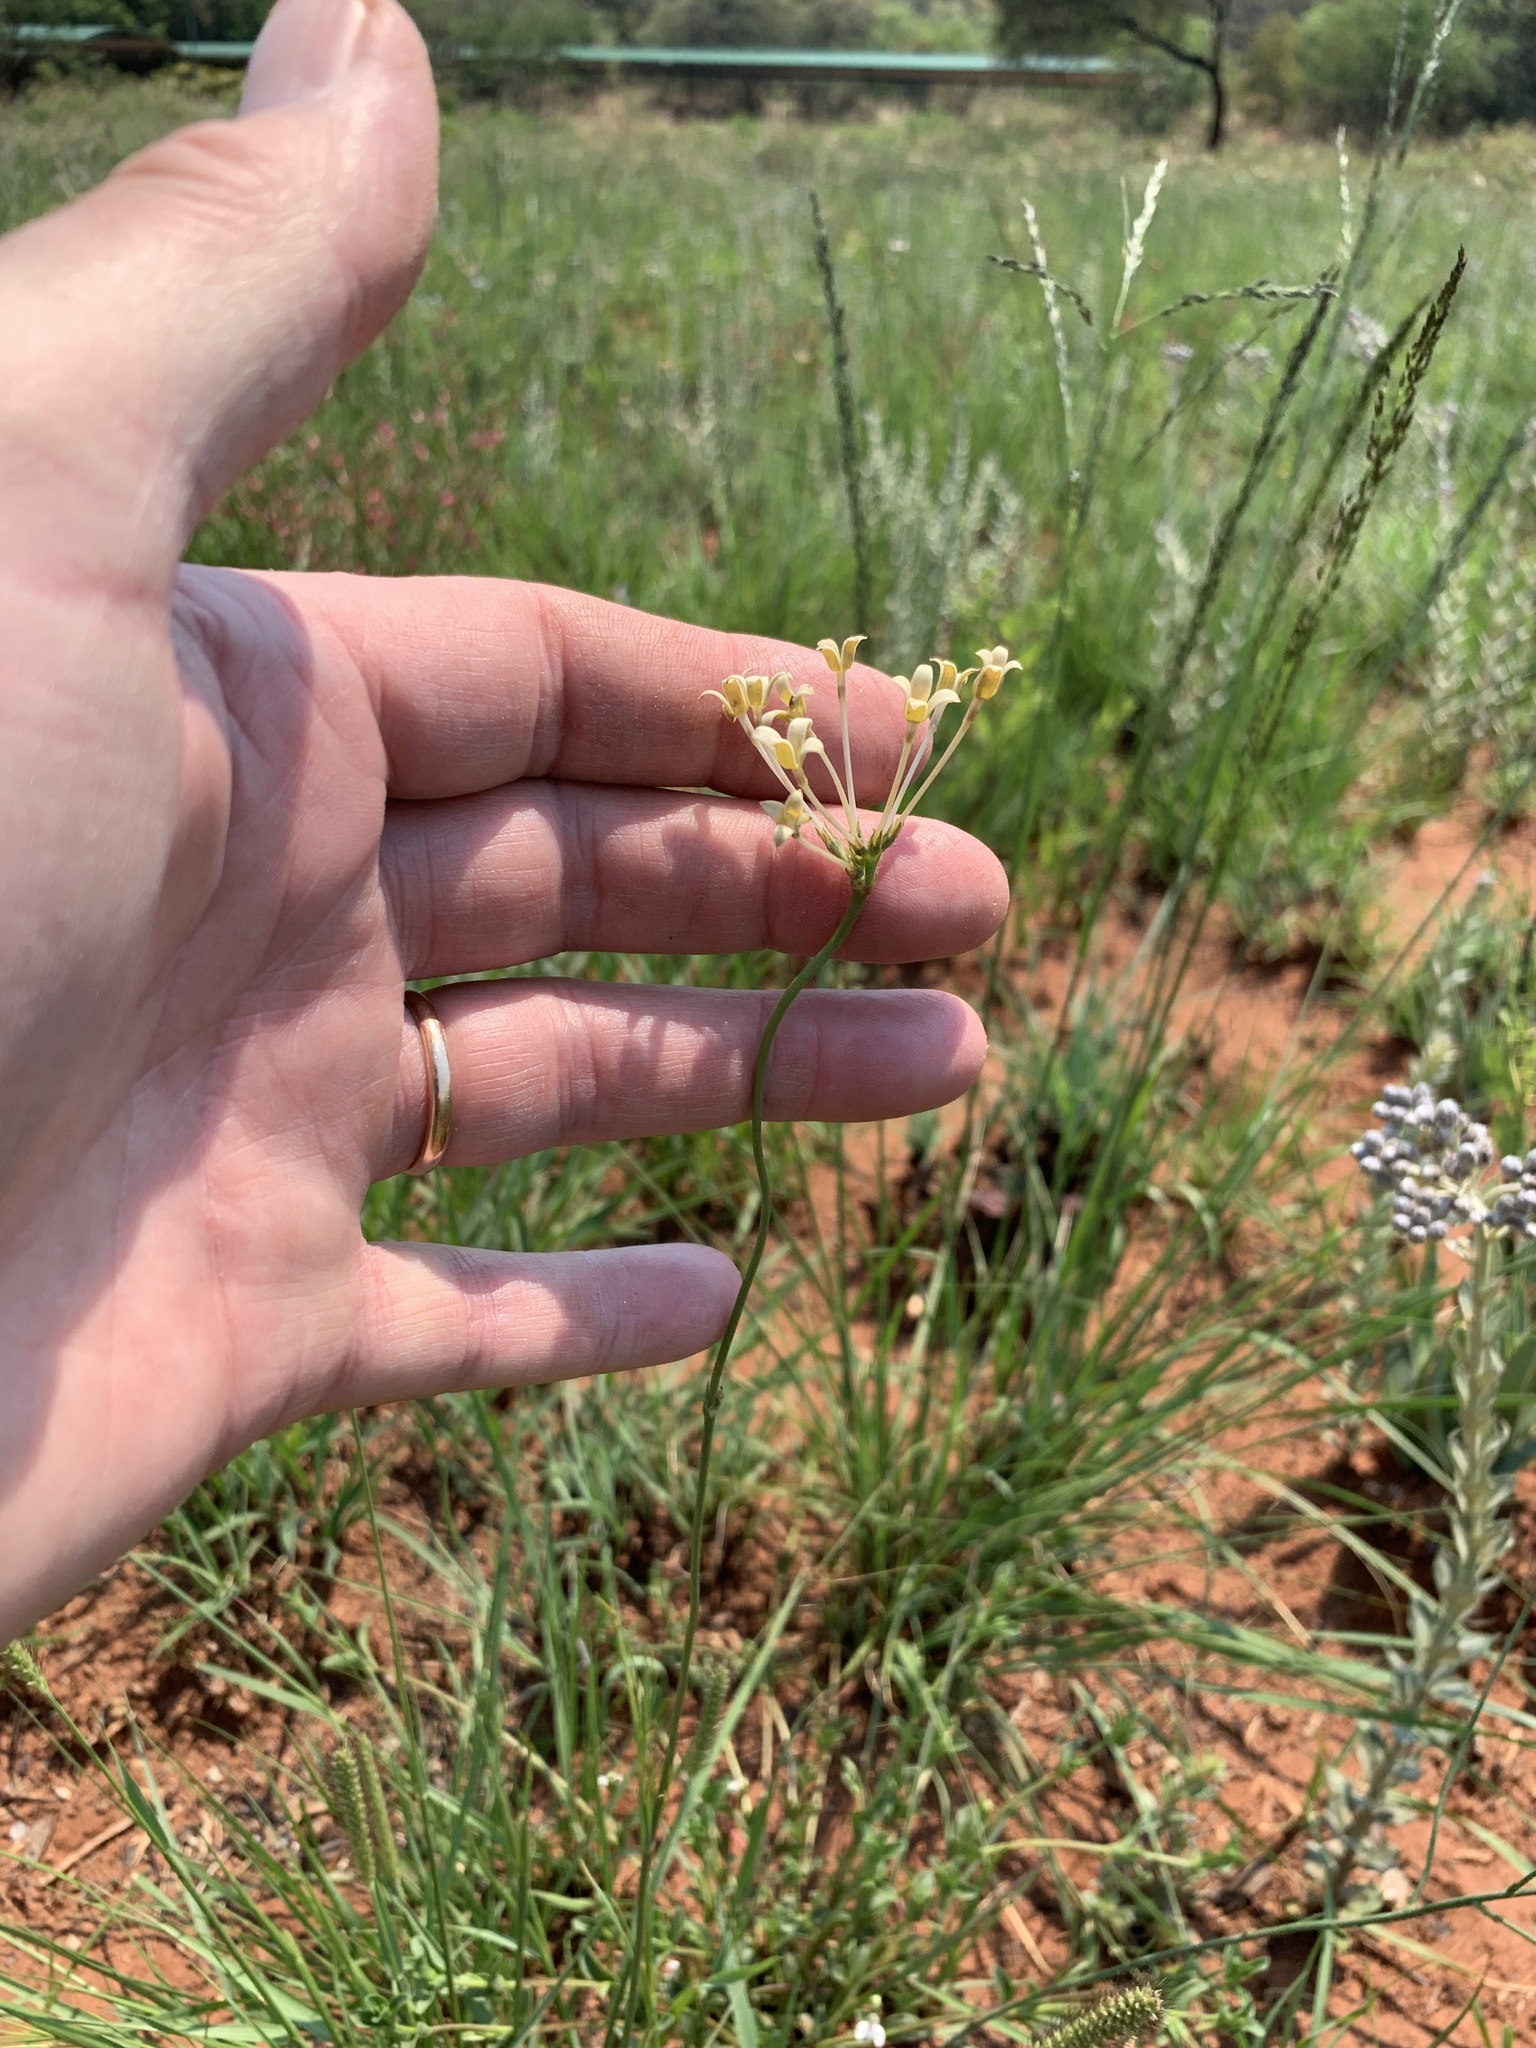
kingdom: Plantae
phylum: Tracheophyta
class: Magnoliopsida
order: Gentianales
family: Rubiaceae
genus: Kohautia
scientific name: Kohautia amatymbica
